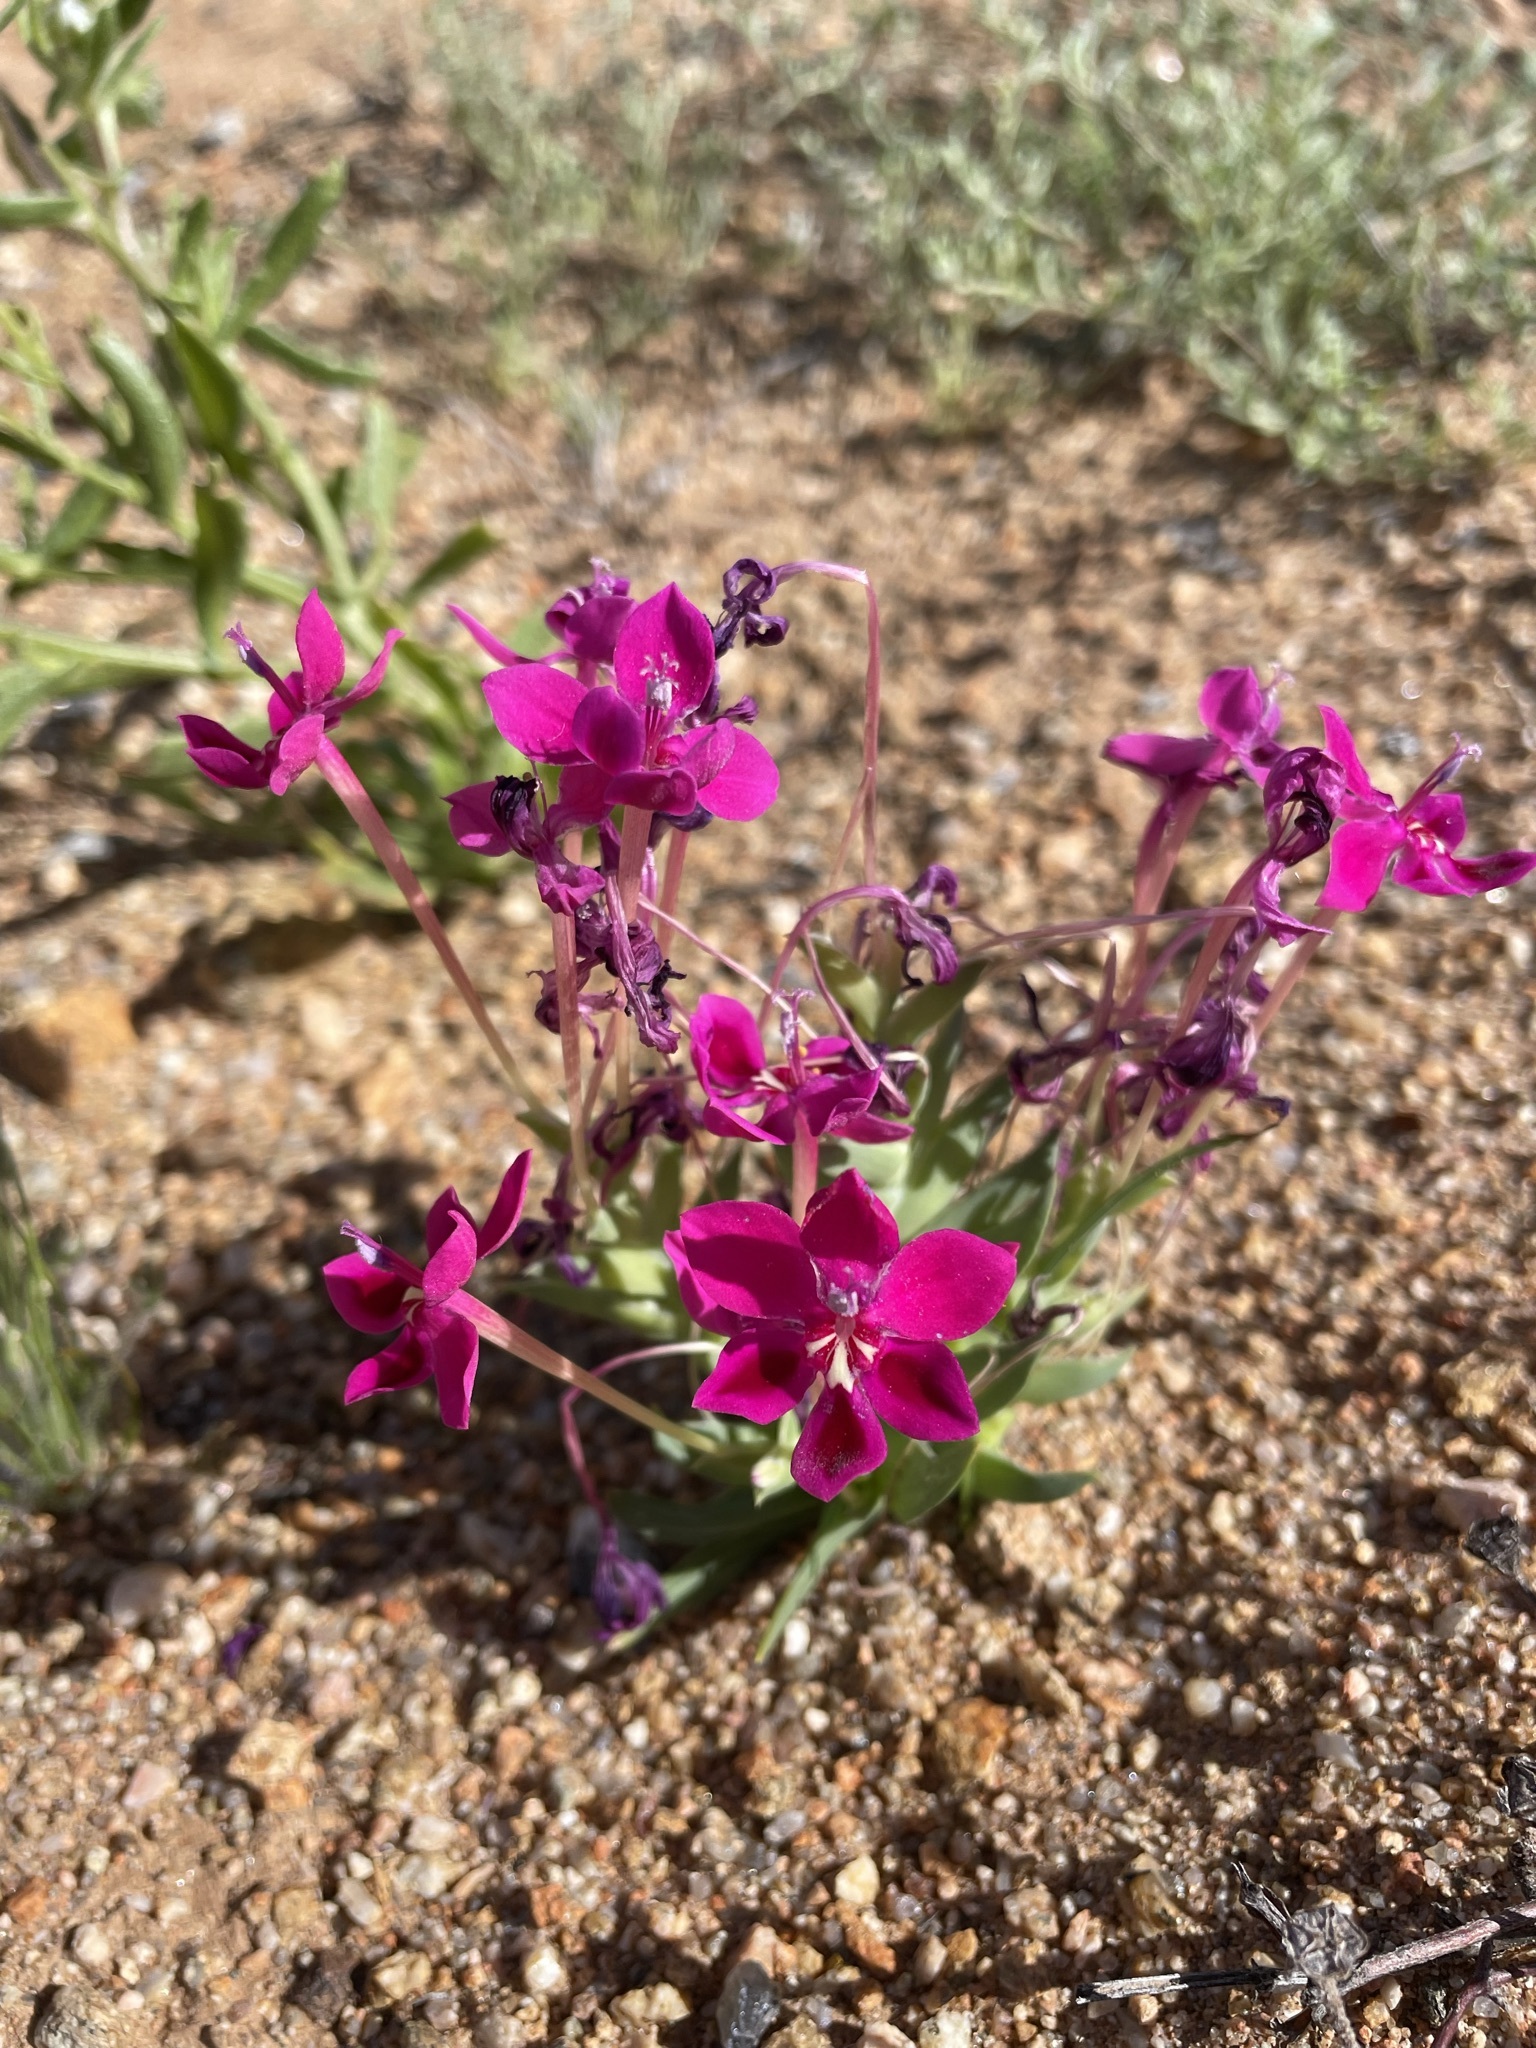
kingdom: Plantae
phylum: Tracheophyta
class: Liliopsida
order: Asparagales
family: Iridaceae
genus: Lapeirousia
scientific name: Lapeirousia silenoides
